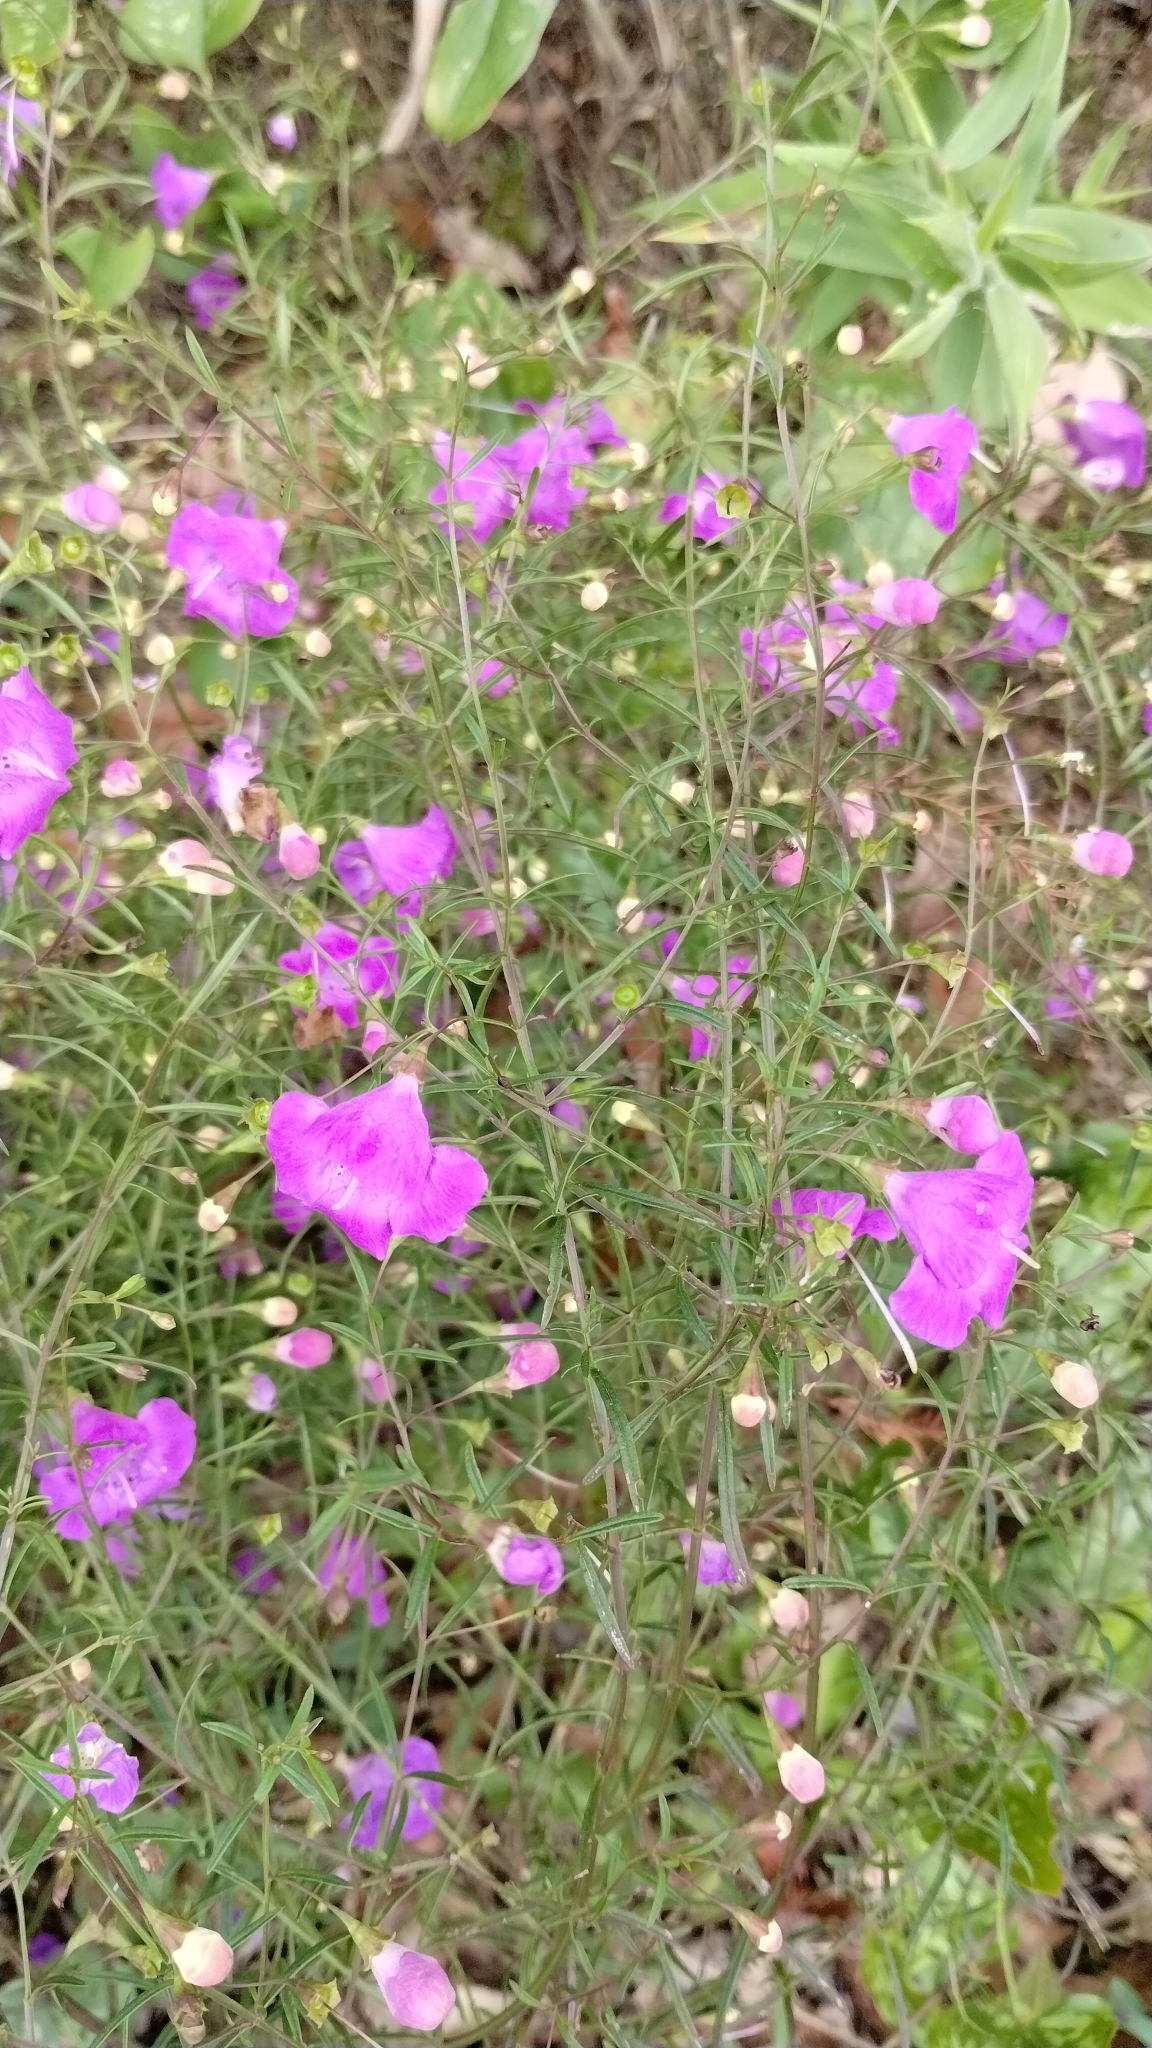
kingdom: Plantae
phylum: Tracheophyta
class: Magnoliopsida
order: Lamiales
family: Orobanchaceae
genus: Agalinis
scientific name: Agalinis tenuifolia
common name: Slender agalinis
